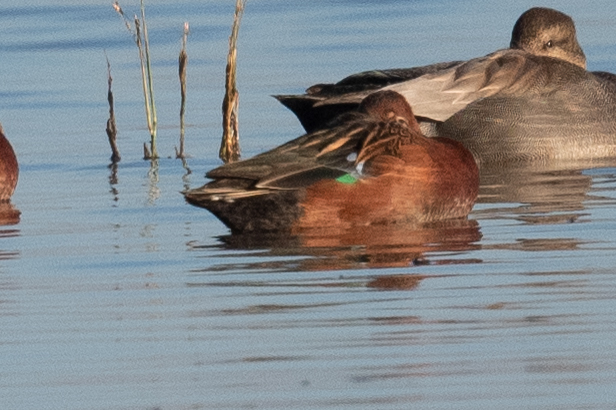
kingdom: Animalia
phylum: Chordata
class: Aves
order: Anseriformes
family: Anatidae
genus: Spatula
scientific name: Spatula cyanoptera
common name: Cinnamon teal
